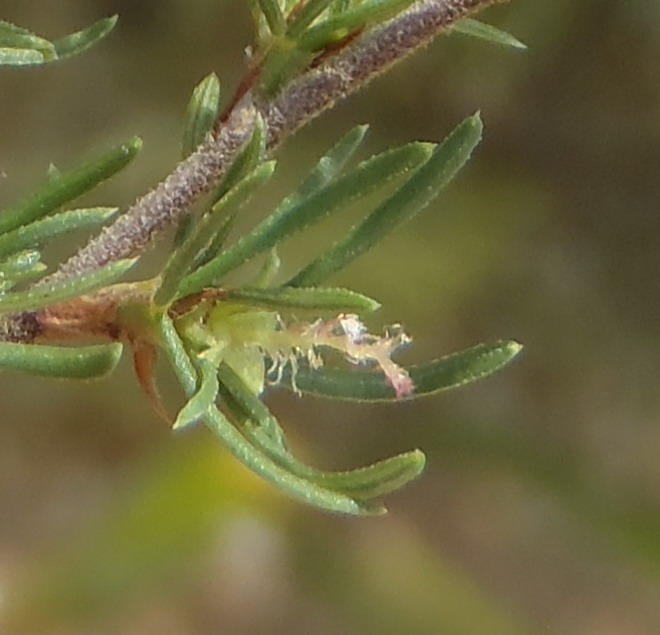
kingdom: Plantae
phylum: Tracheophyta
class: Magnoliopsida
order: Rosales
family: Rosaceae
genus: Cliffortia
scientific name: Cliffortia ramosissima
